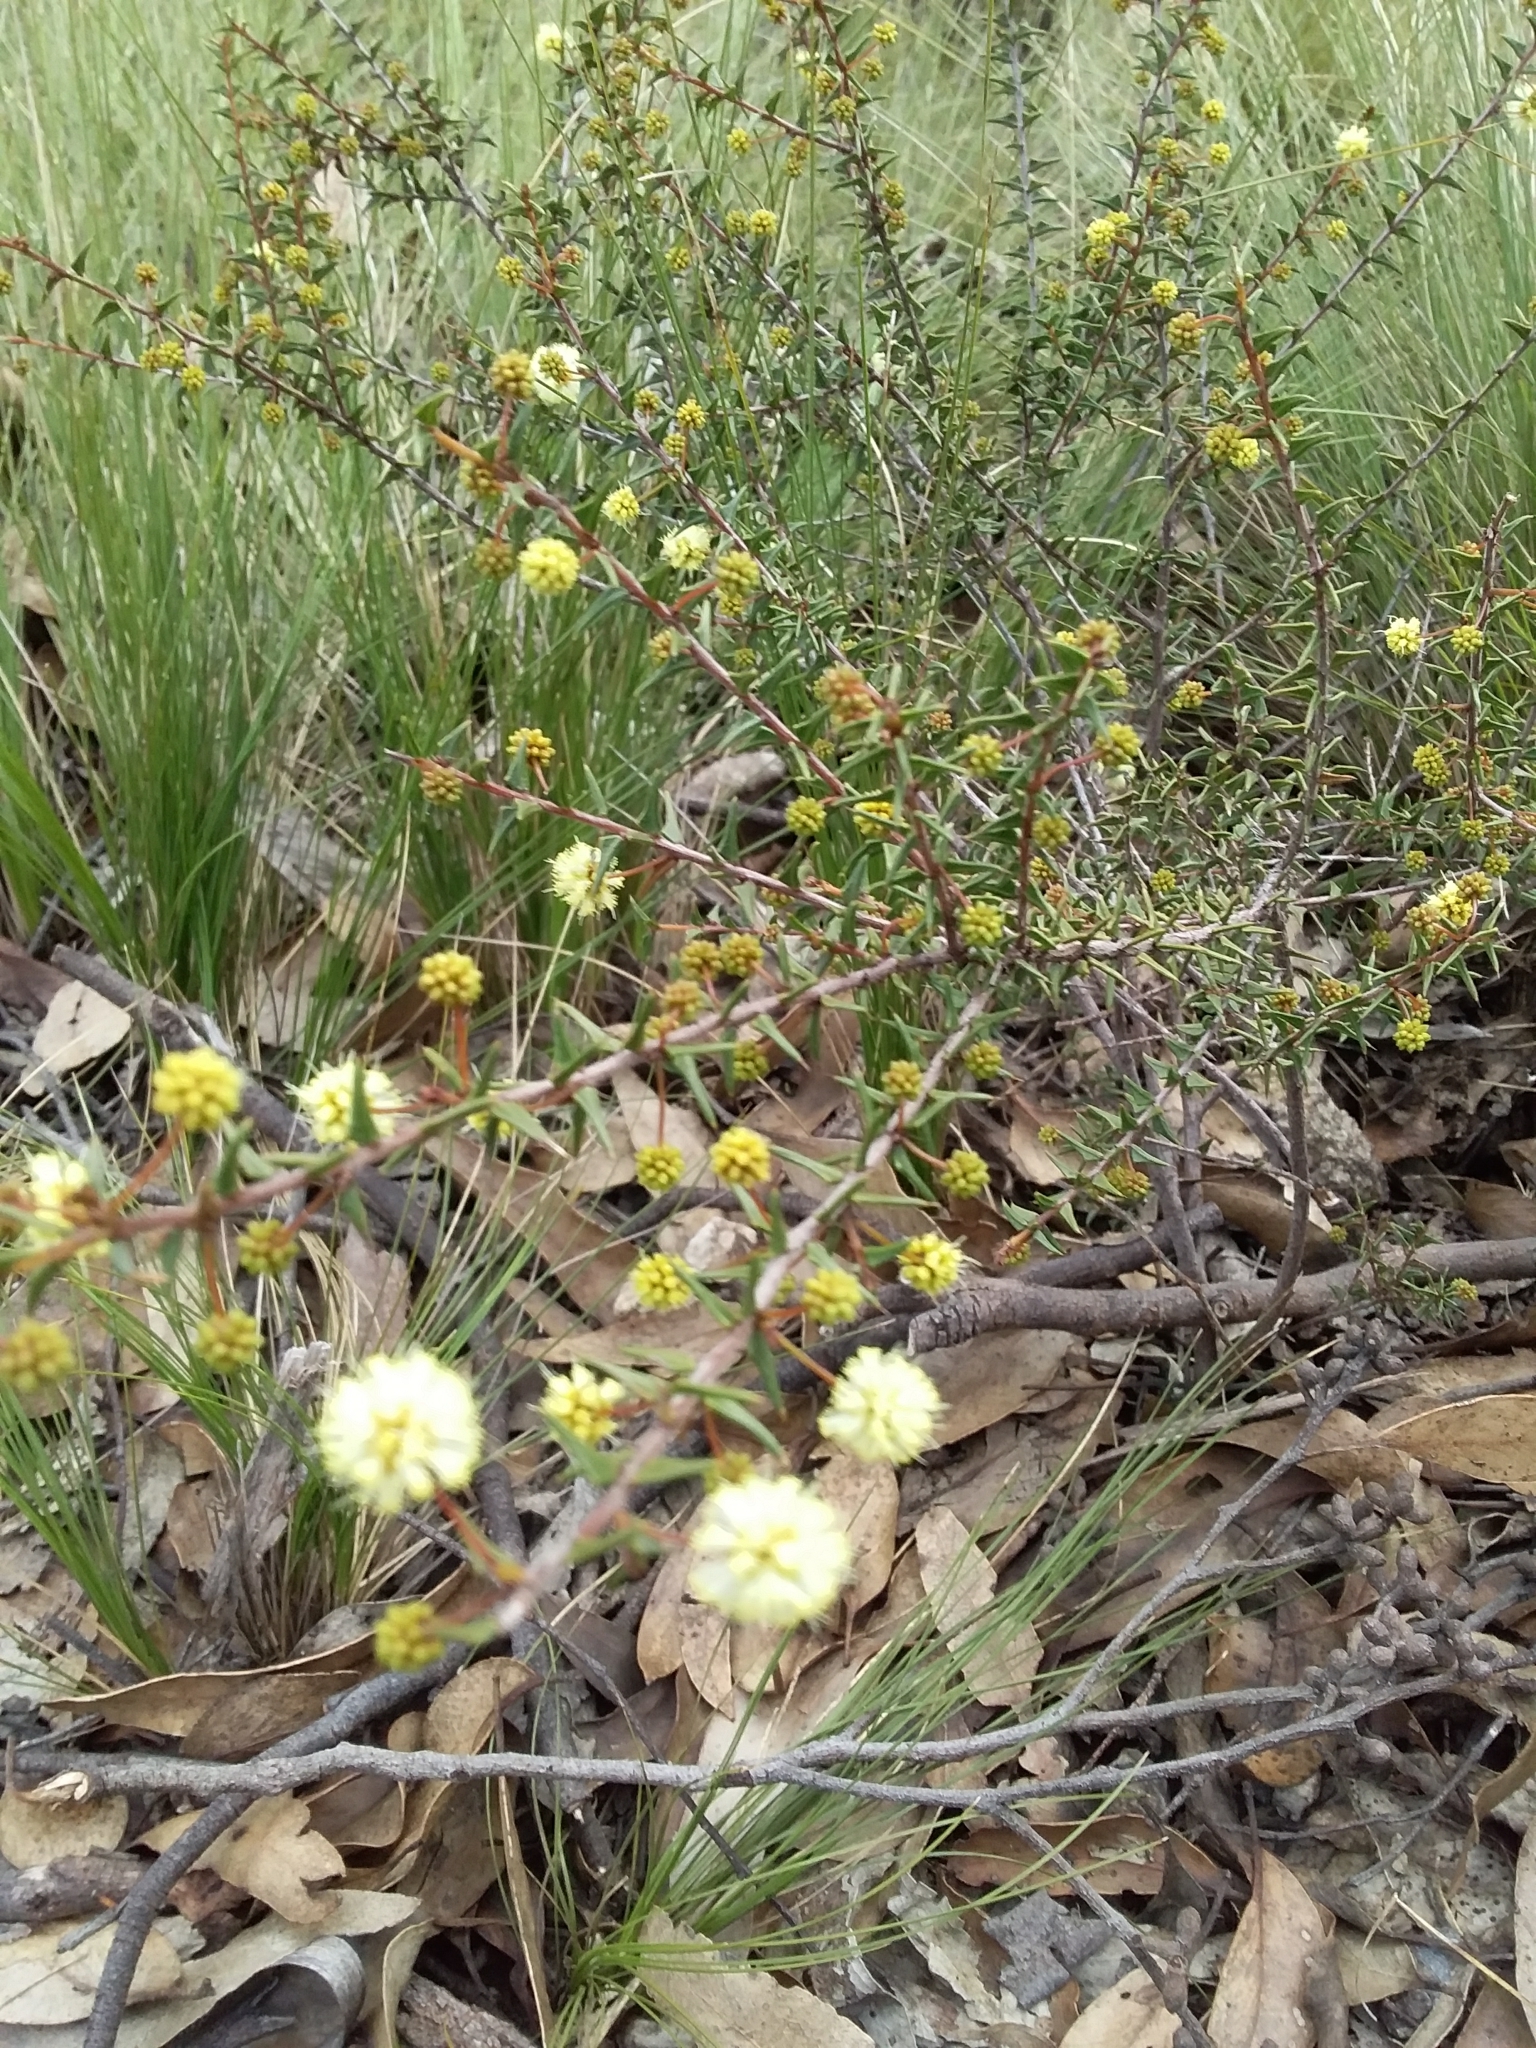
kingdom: Plantae
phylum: Tracheophyta
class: Magnoliopsida
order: Fabales
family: Fabaceae
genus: Acacia
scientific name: Acacia gunnii
